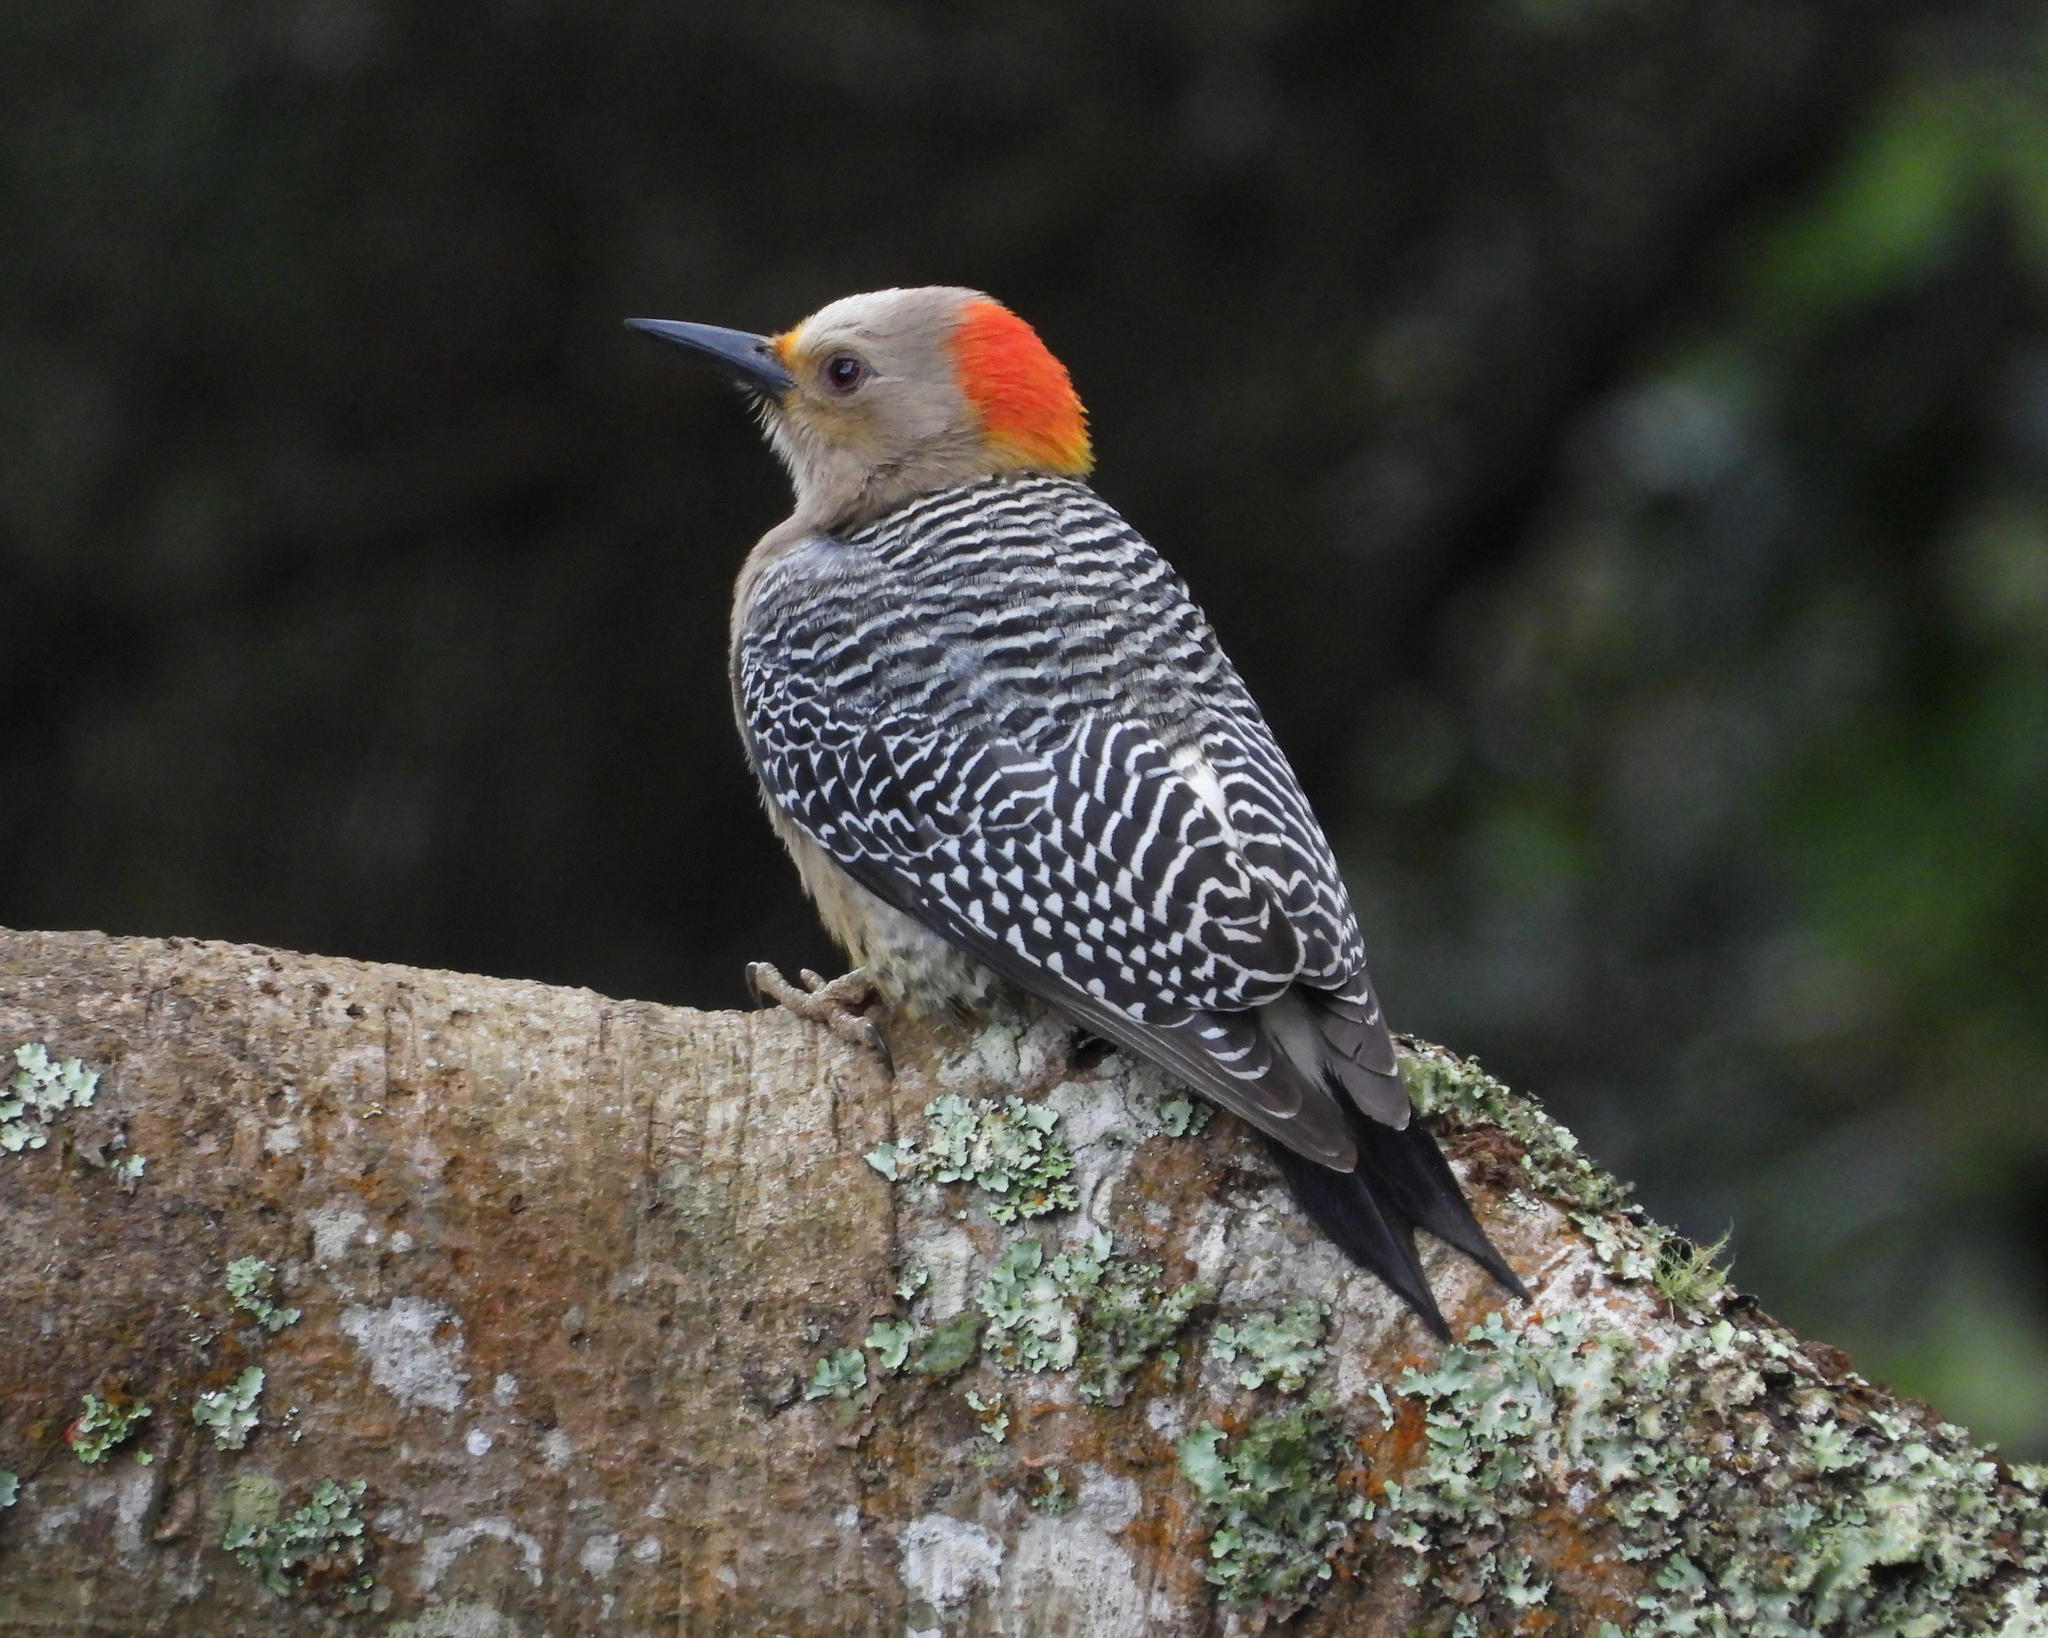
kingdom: Animalia
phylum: Chordata
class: Aves
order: Piciformes
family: Picidae
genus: Melanerpes
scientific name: Melanerpes aurifrons
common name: Golden-fronted woodpecker
